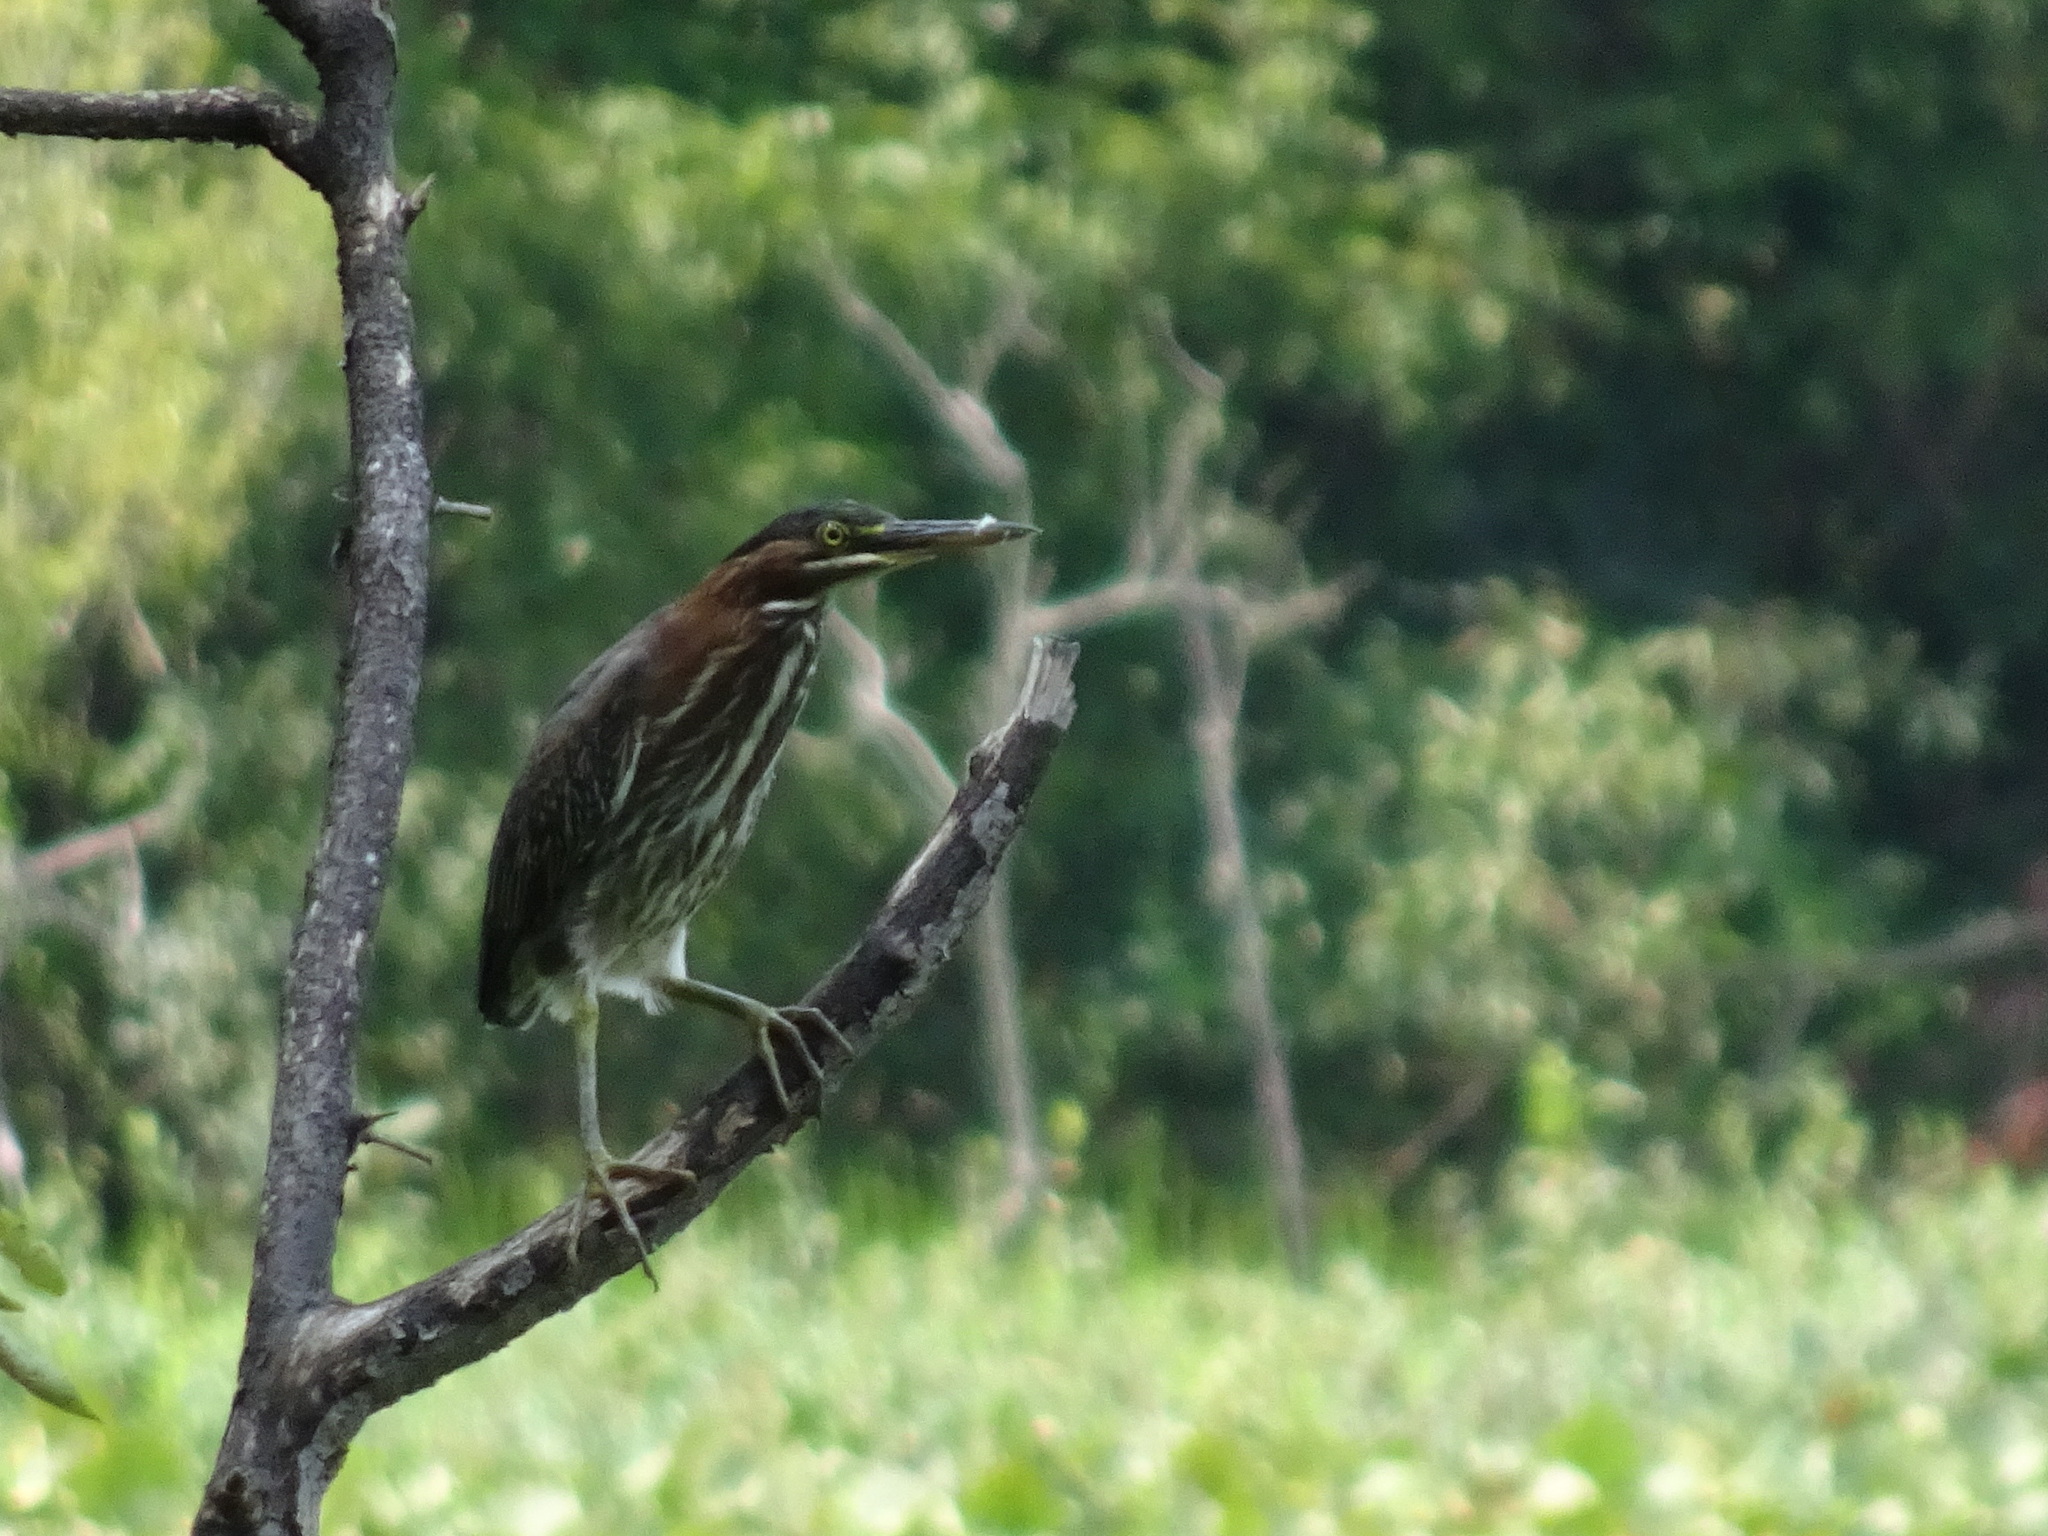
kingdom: Animalia
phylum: Chordata
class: Aves
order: Pelecaniformes
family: Ardeidae
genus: Butorides
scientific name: Butorides virescens
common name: Green heron
